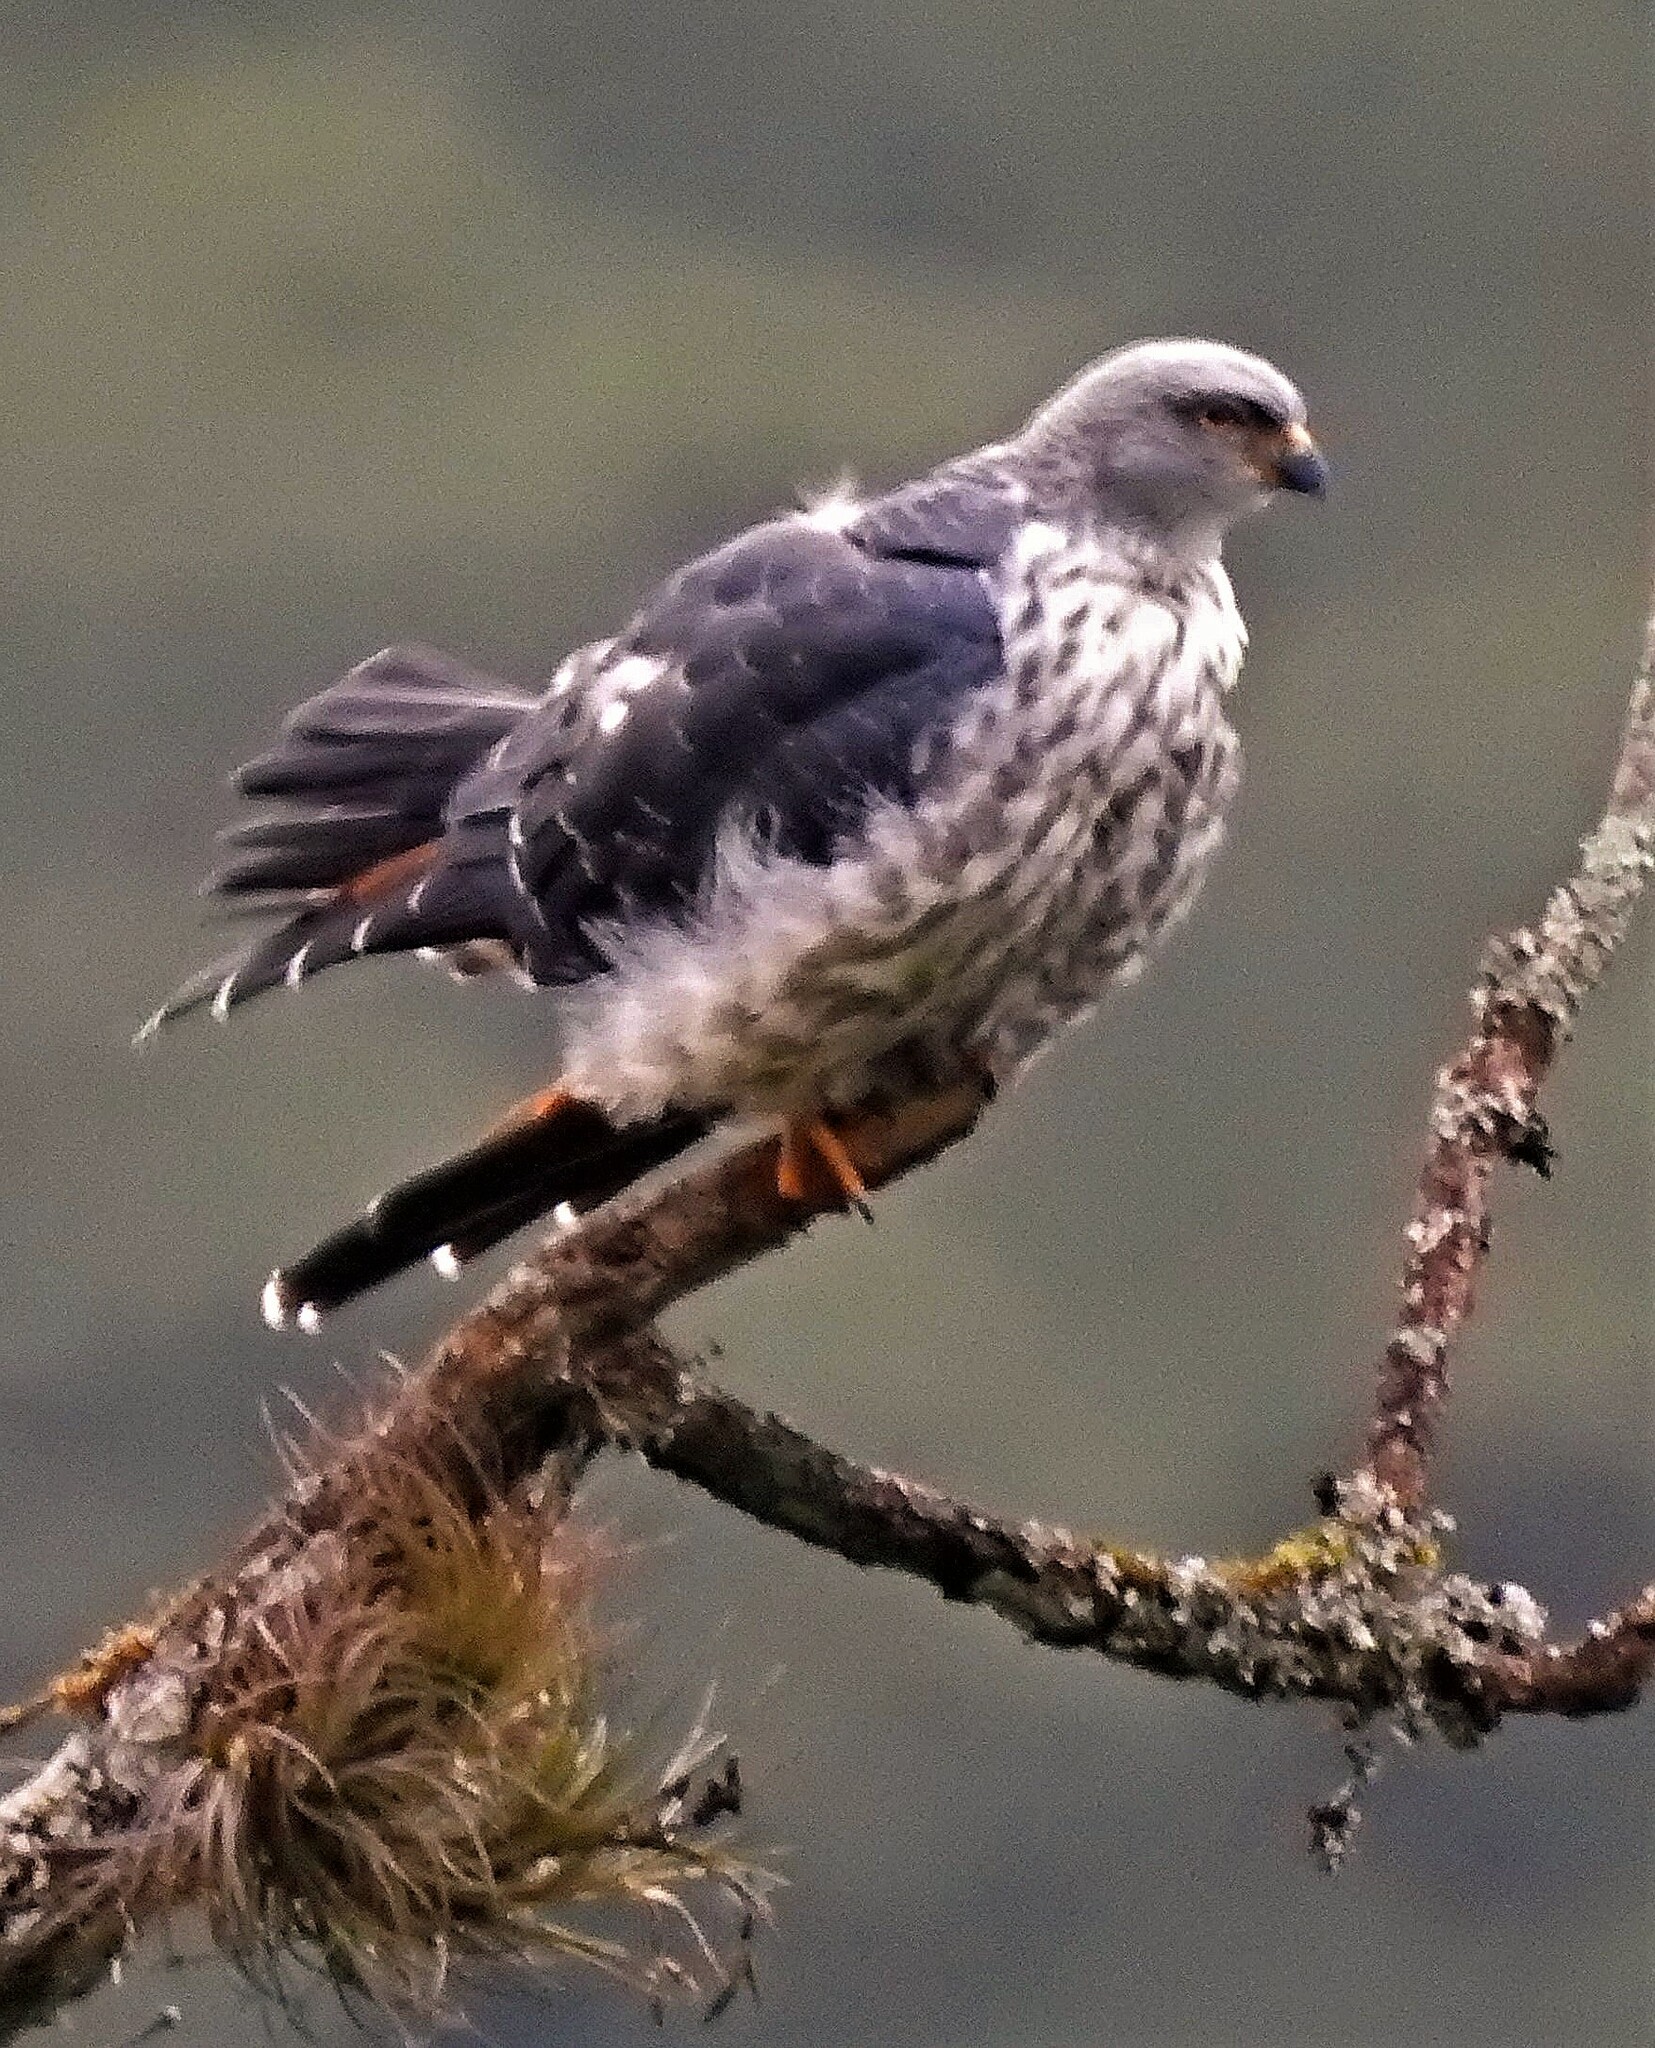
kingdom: Animalia
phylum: Chordata
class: Aves
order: Accipitriformes
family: Accipitridae
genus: Ictinia
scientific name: Ictinia plumbea
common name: Plumbeous kite
